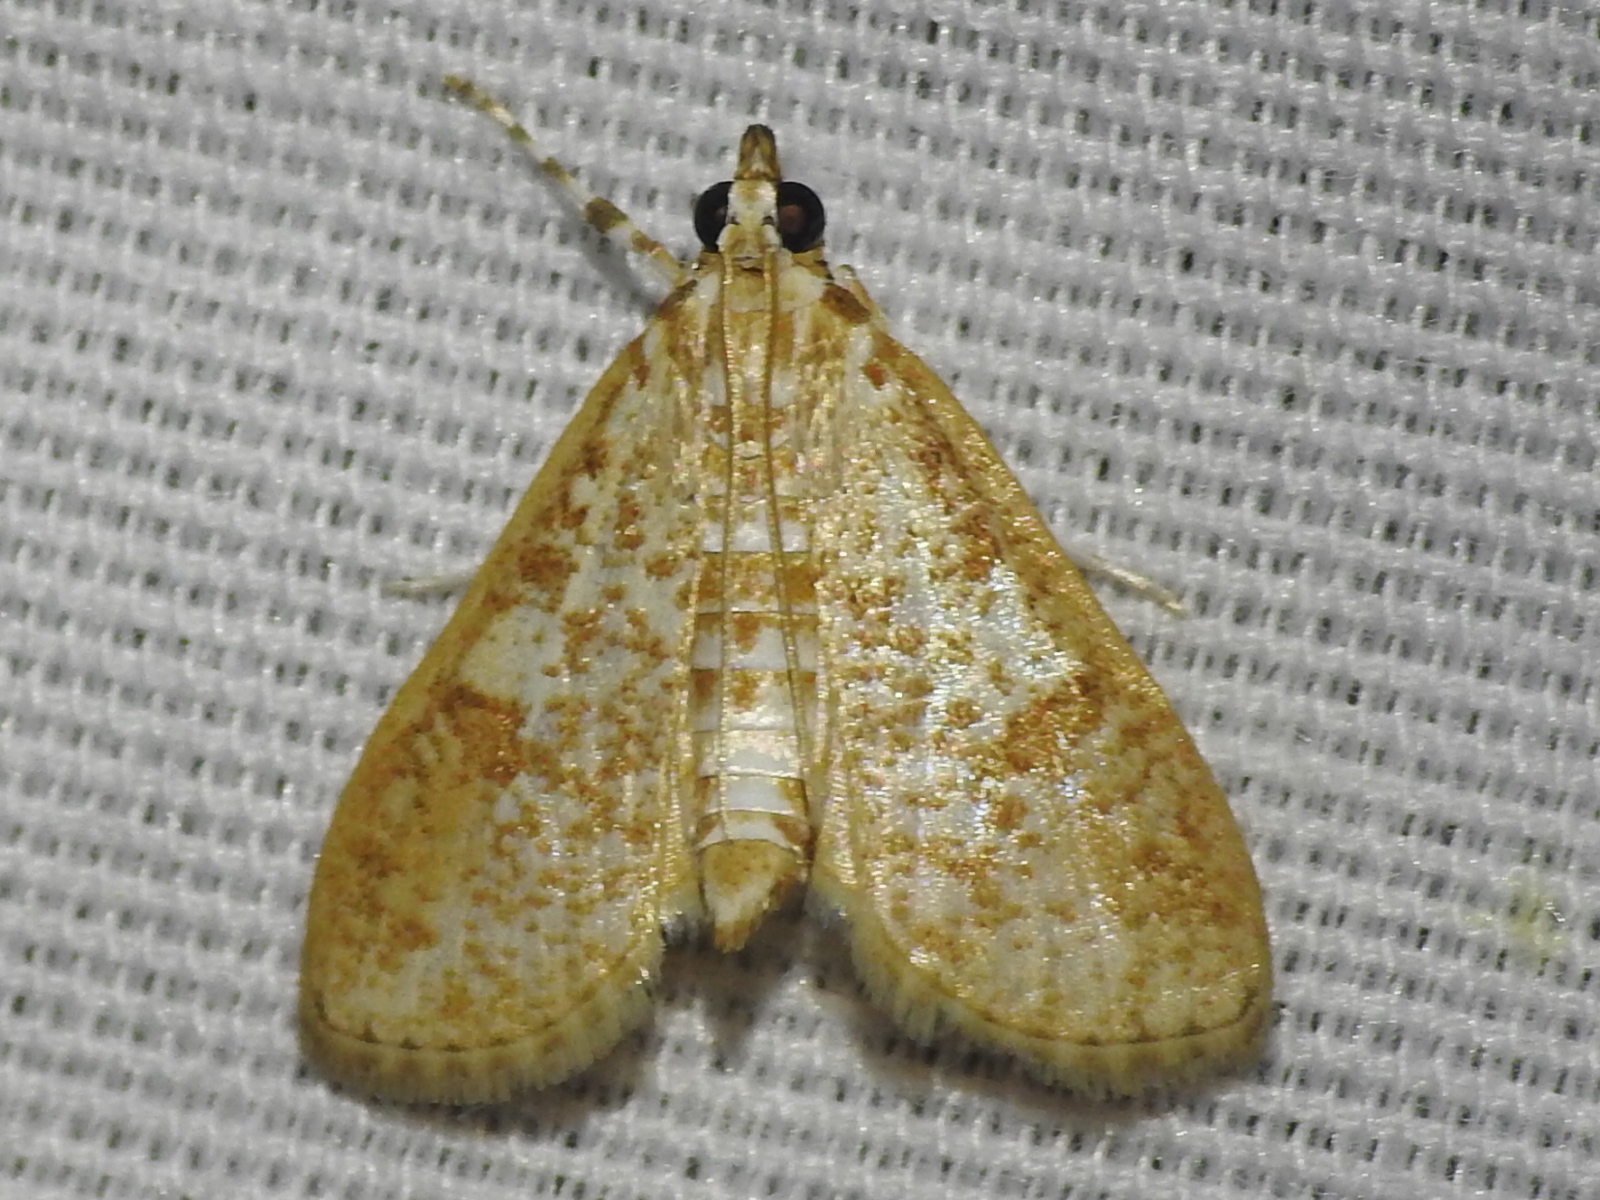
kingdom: Animalia
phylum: Arthropoda
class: Insecta
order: Lepidoptera
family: Crambidae
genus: Palpita
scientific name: Palpita freemanalis
